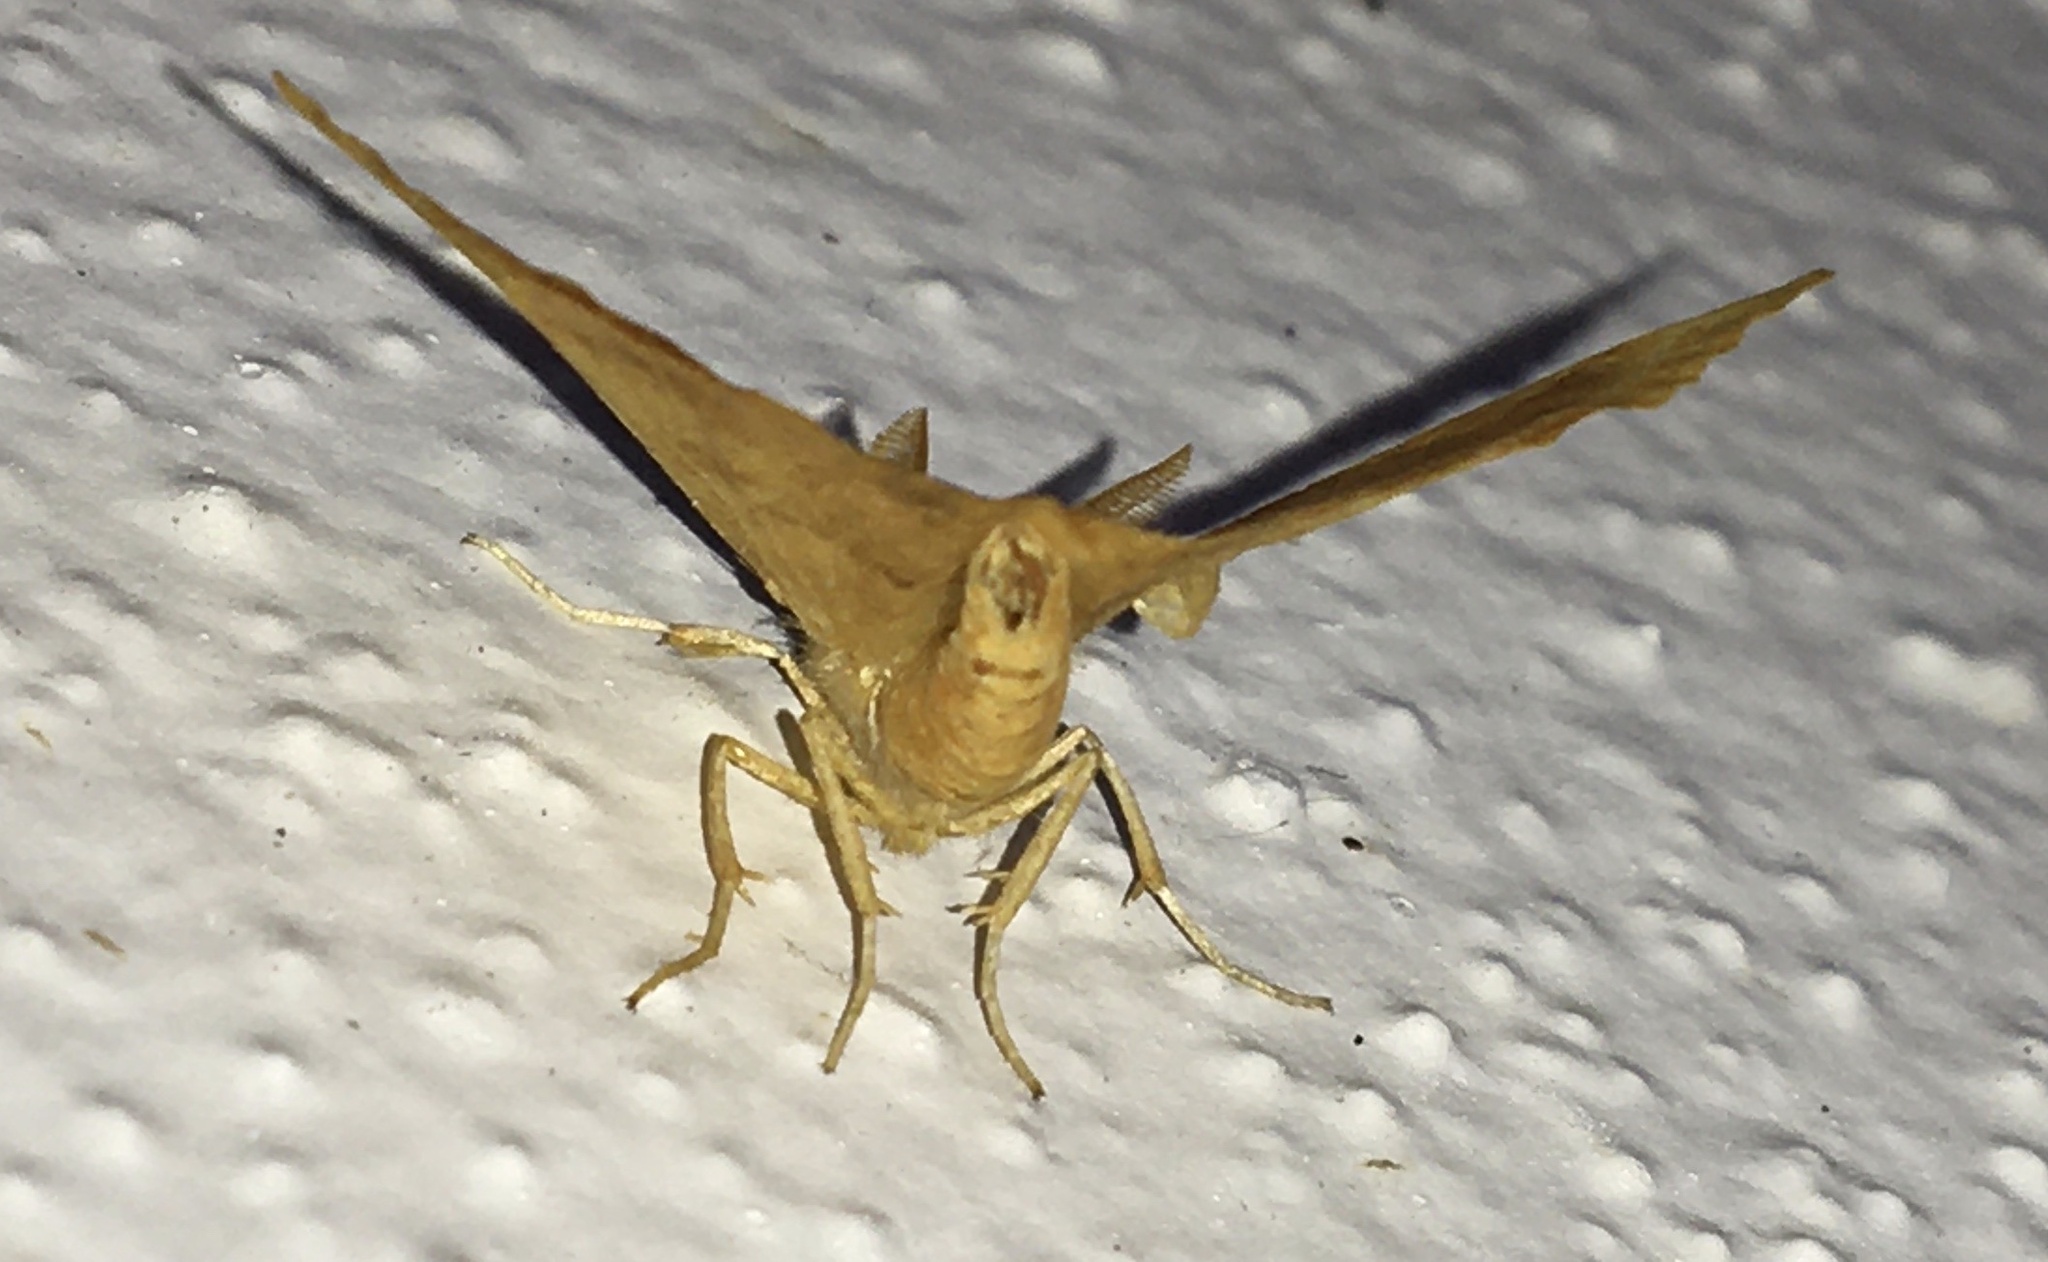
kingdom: Animalia
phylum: Arthropoda
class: Insecta
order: Lepidoptera
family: Geometridae
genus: Ennomos
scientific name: Ennomos quercinaria
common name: August thorn
